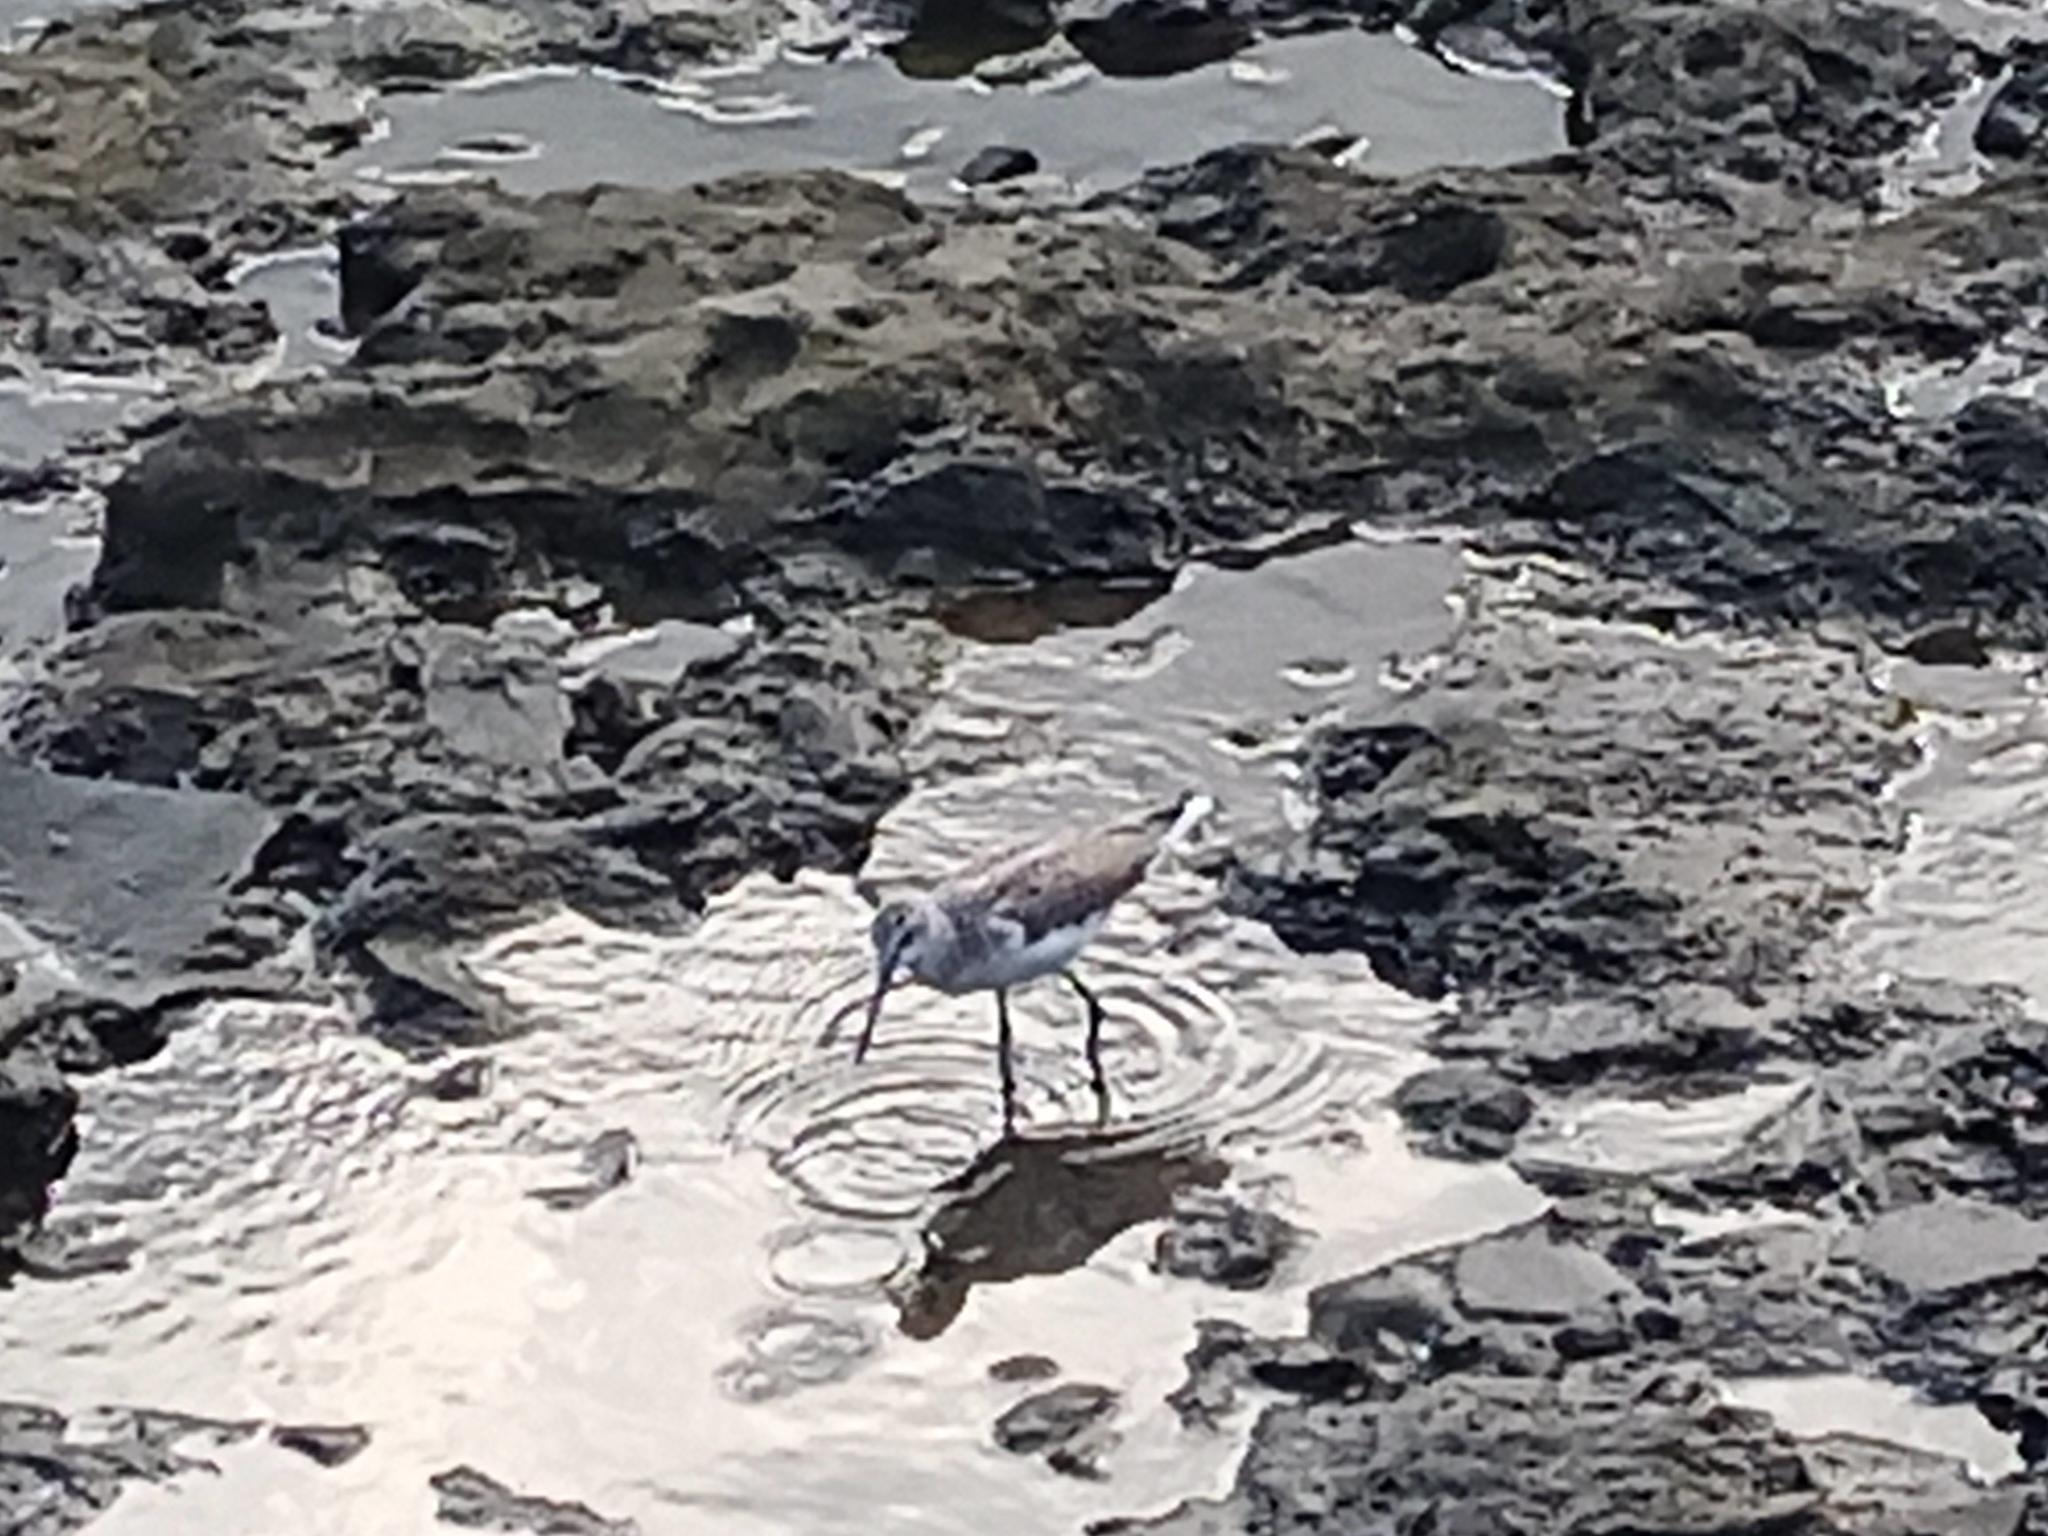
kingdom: Animalia
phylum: Chordata
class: Aves
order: Charadriiformes
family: Scolopacidae
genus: Tringa
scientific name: Tringa nebularia
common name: Common greenshank
